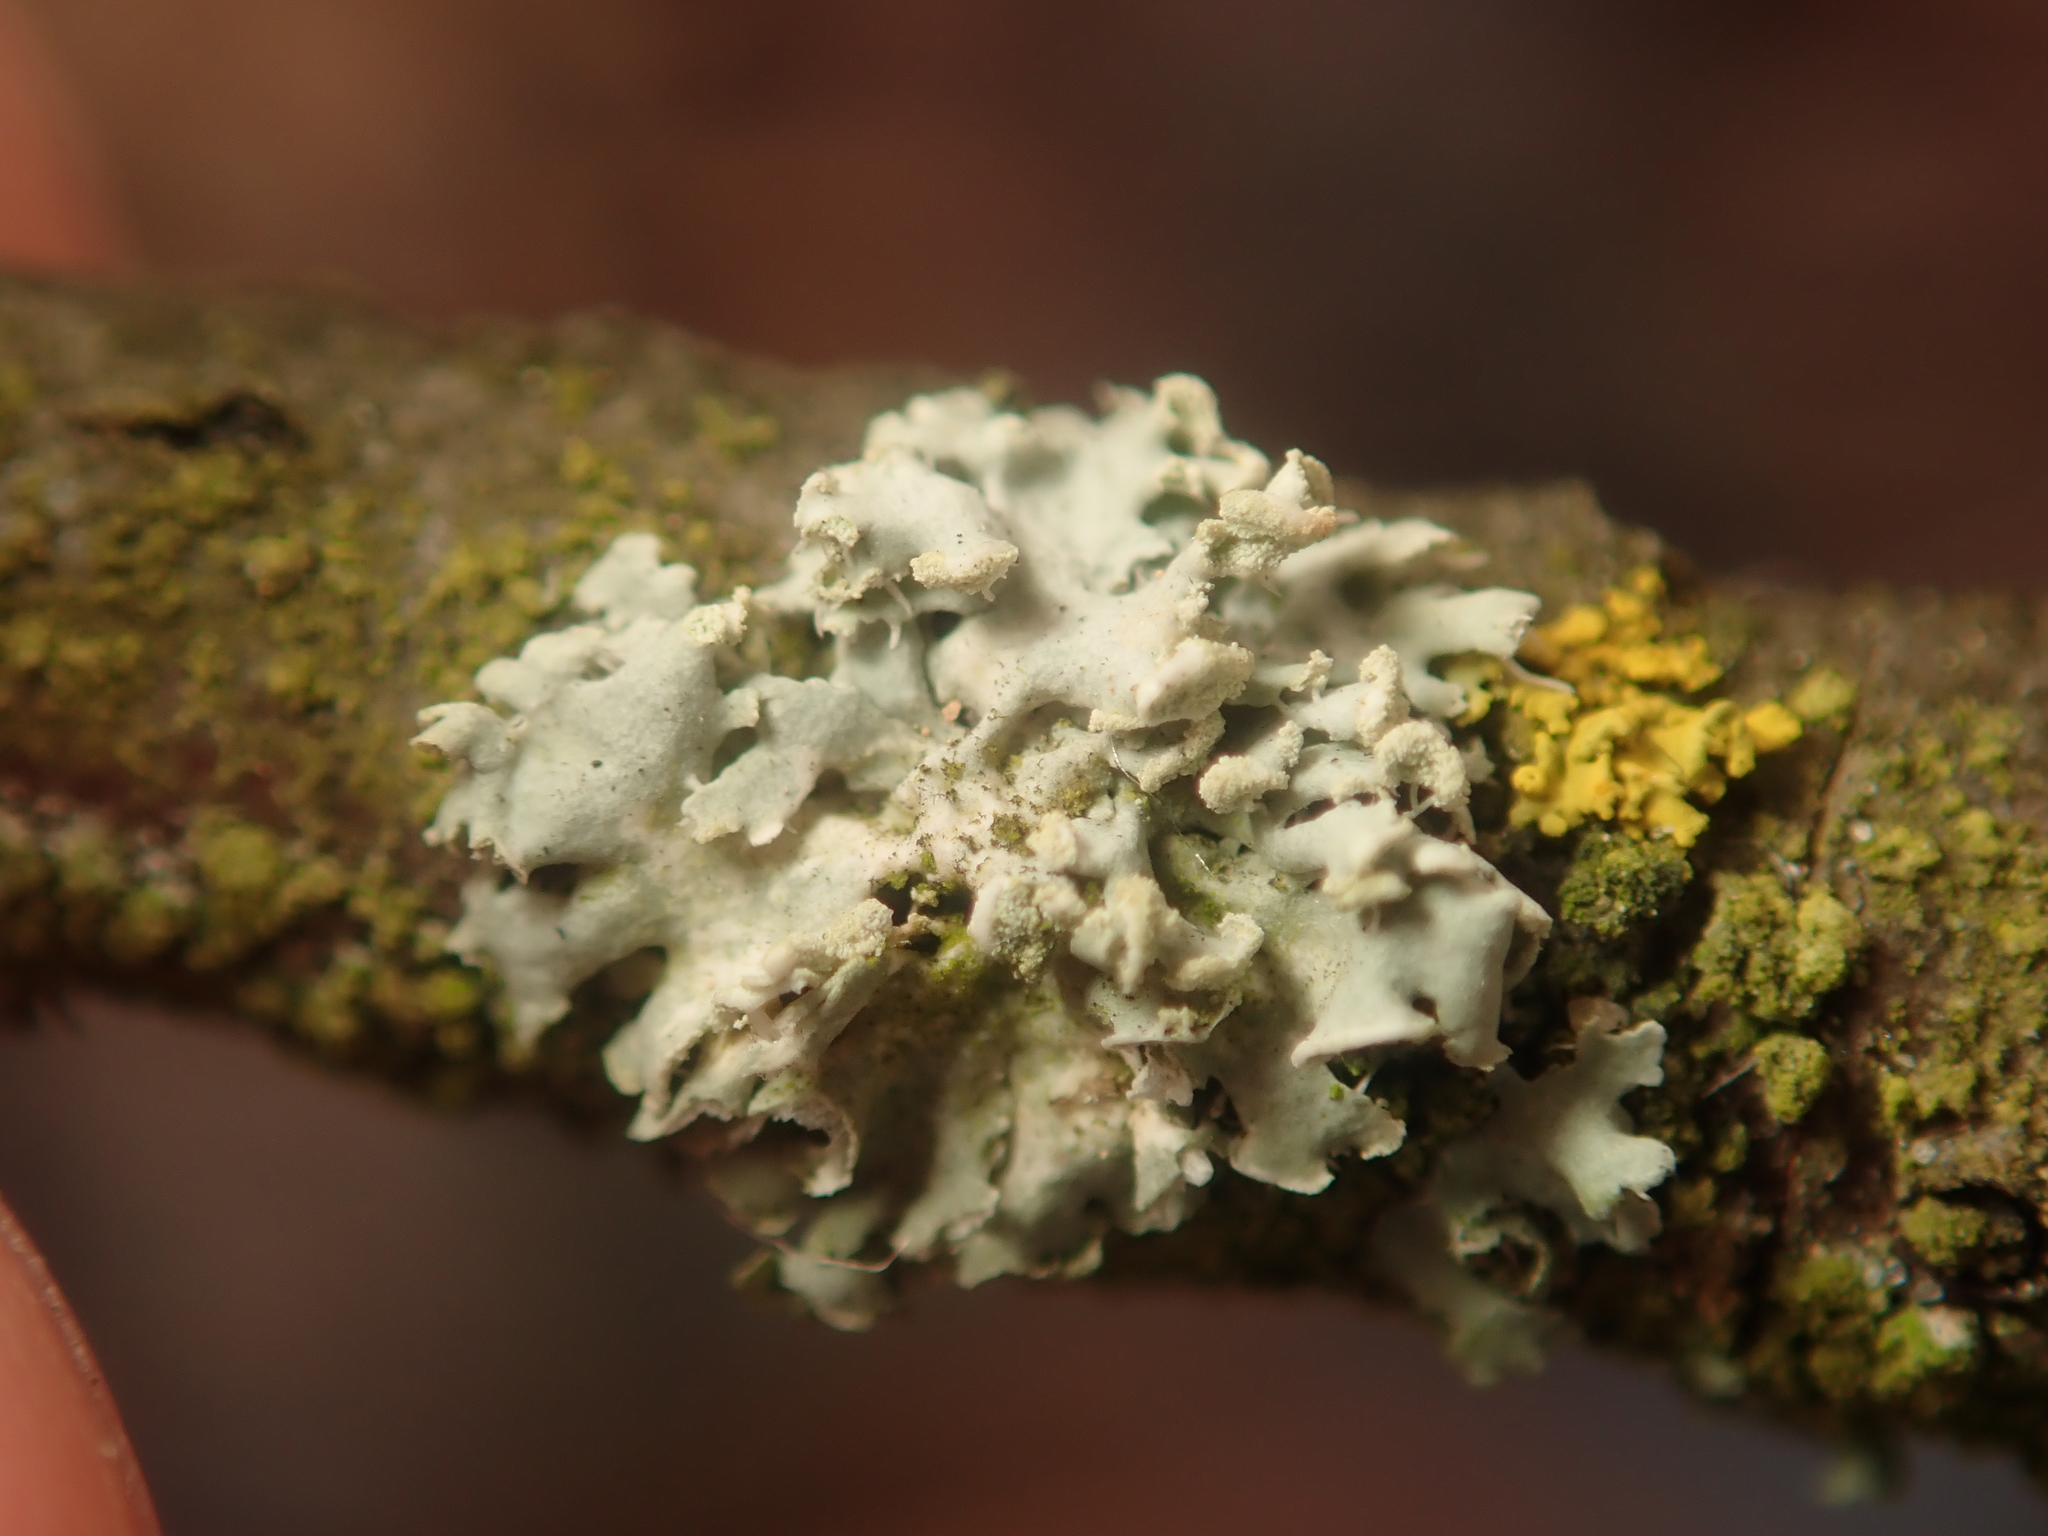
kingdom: Fungi
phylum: Ascomycota
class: Lecanoromycetes
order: Caliciales
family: Physciaceae
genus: Physcia
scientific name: Physcia tenella
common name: Fringed rosette lichen
